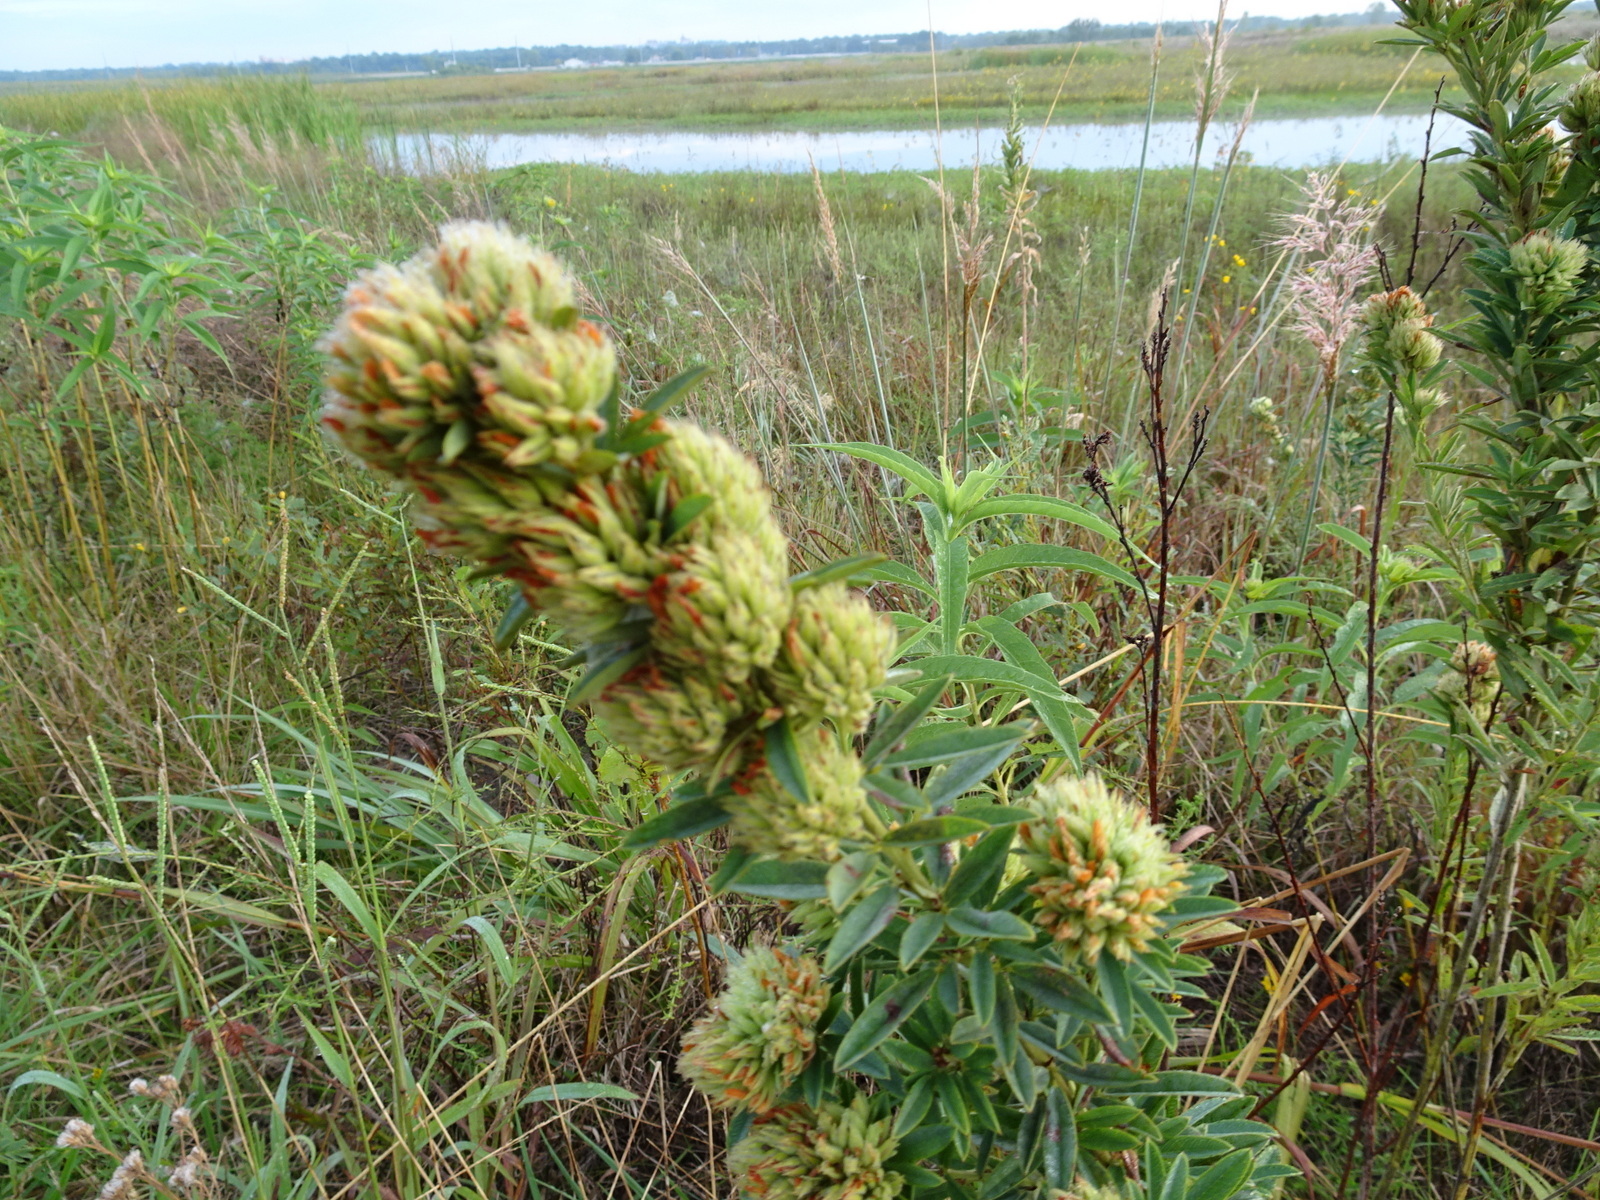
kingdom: Plantae
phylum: Tracheophyta
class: Magnoliopsida
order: Fabales
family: Fabaceae
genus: Lespedeza
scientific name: Lespedeza capitata
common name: Dusty clover
